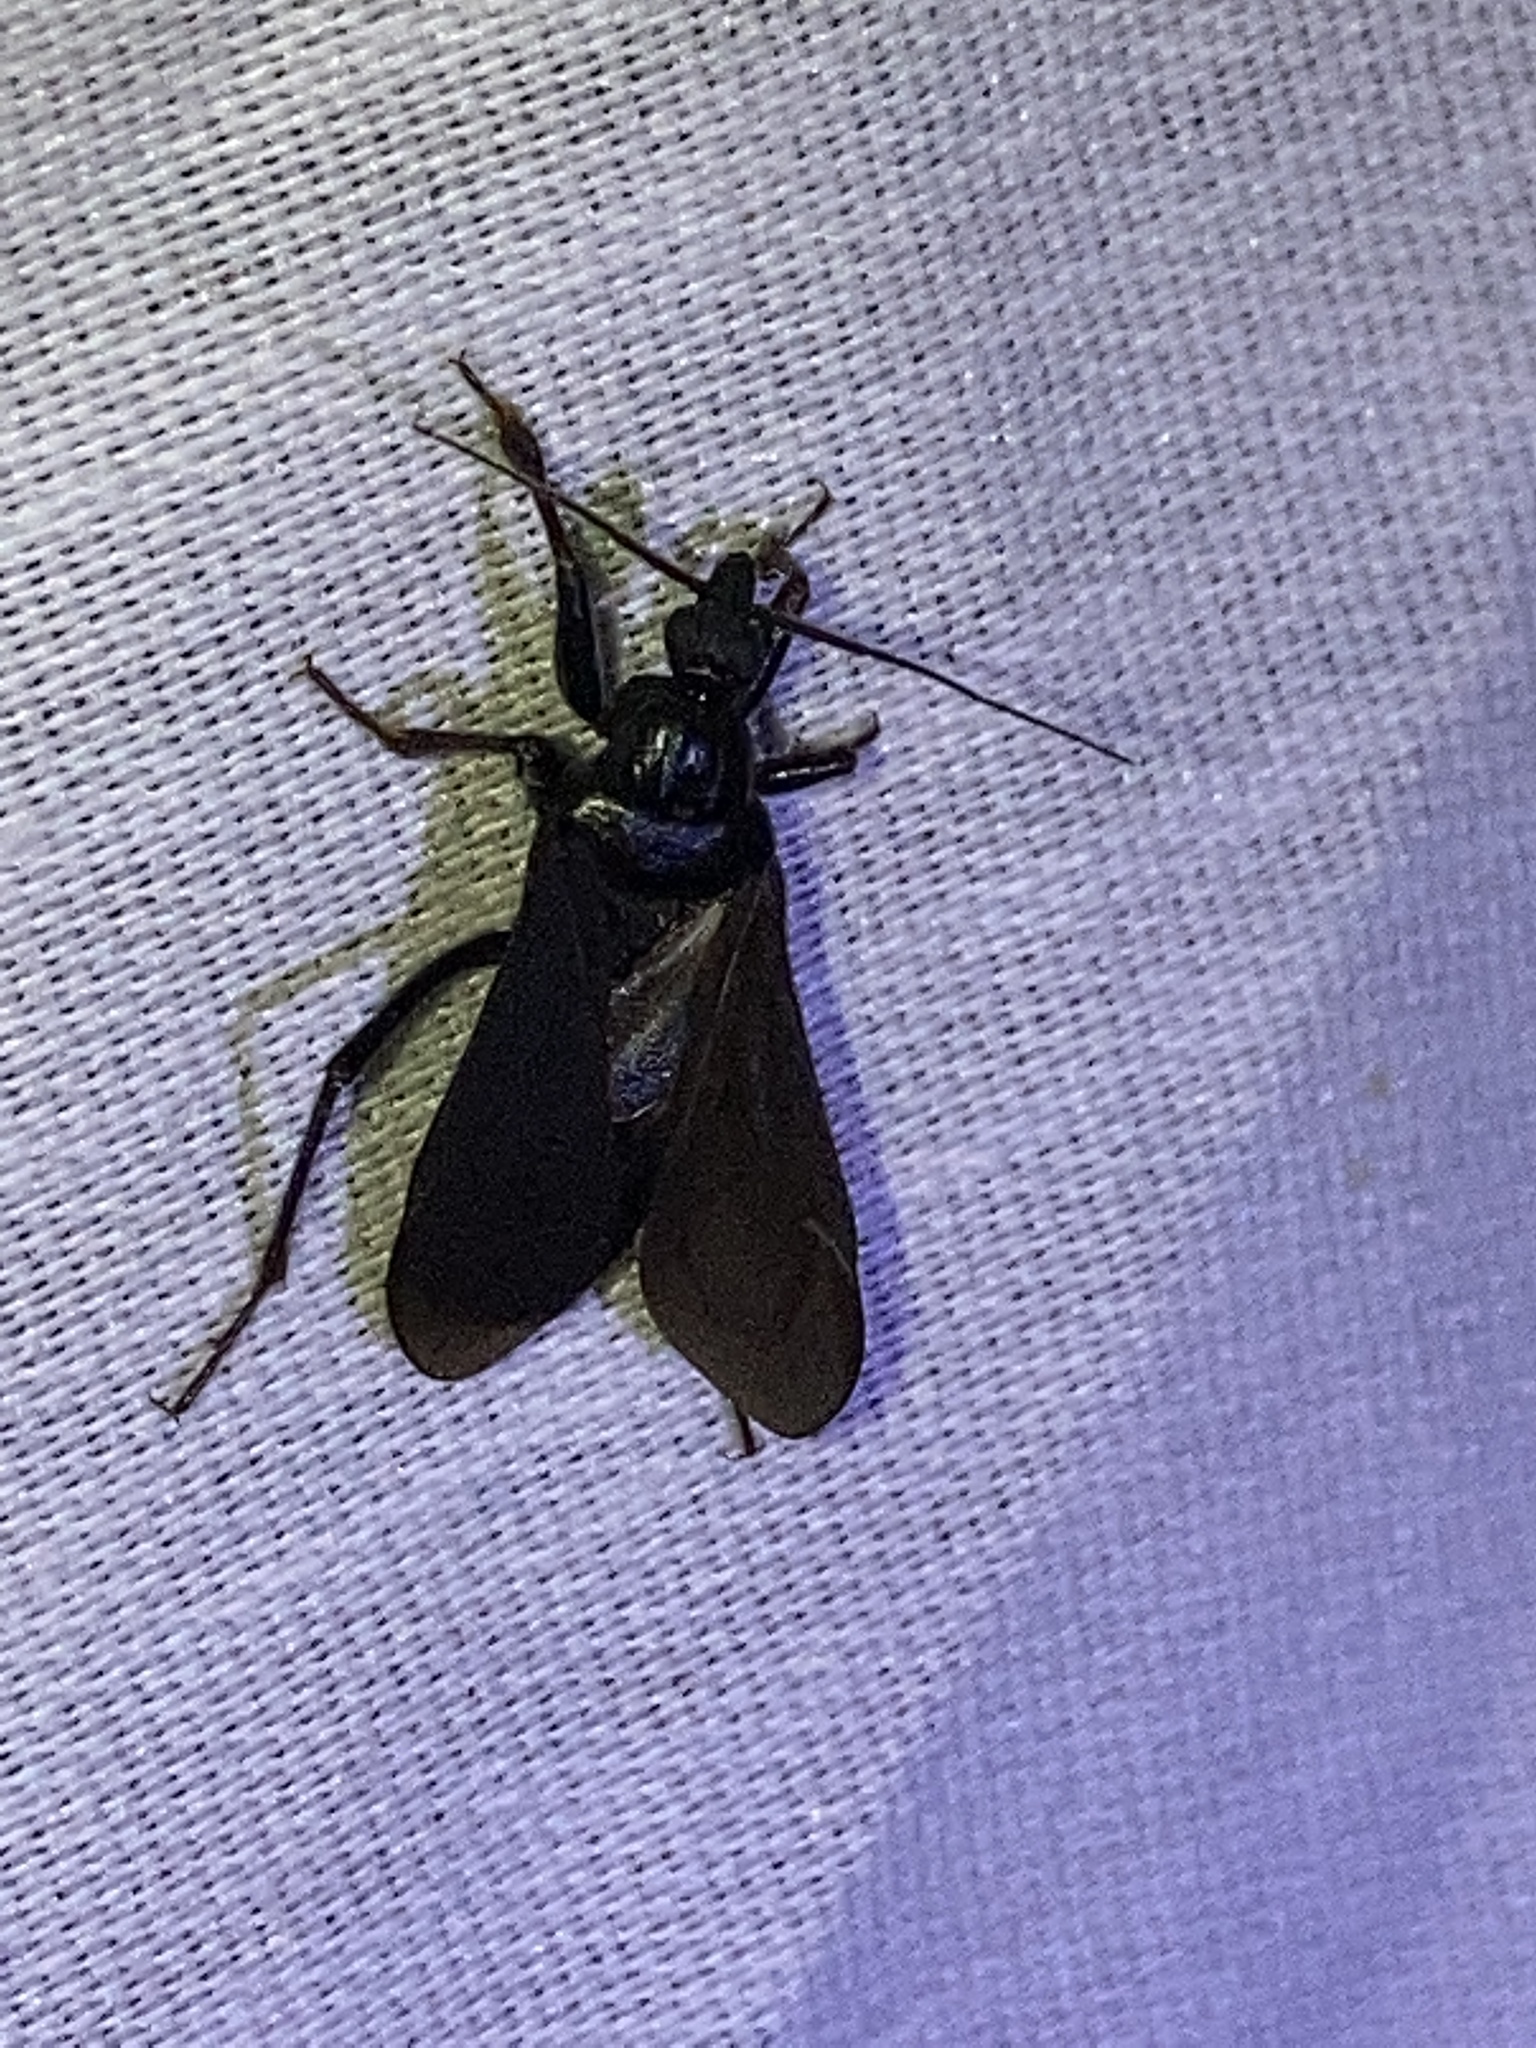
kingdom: Animalia
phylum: Arthropoda
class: Insecta
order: Hemiptera
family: Reduviidae
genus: Melanolestes
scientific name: Melanolestes picipes
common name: Assassin bug
